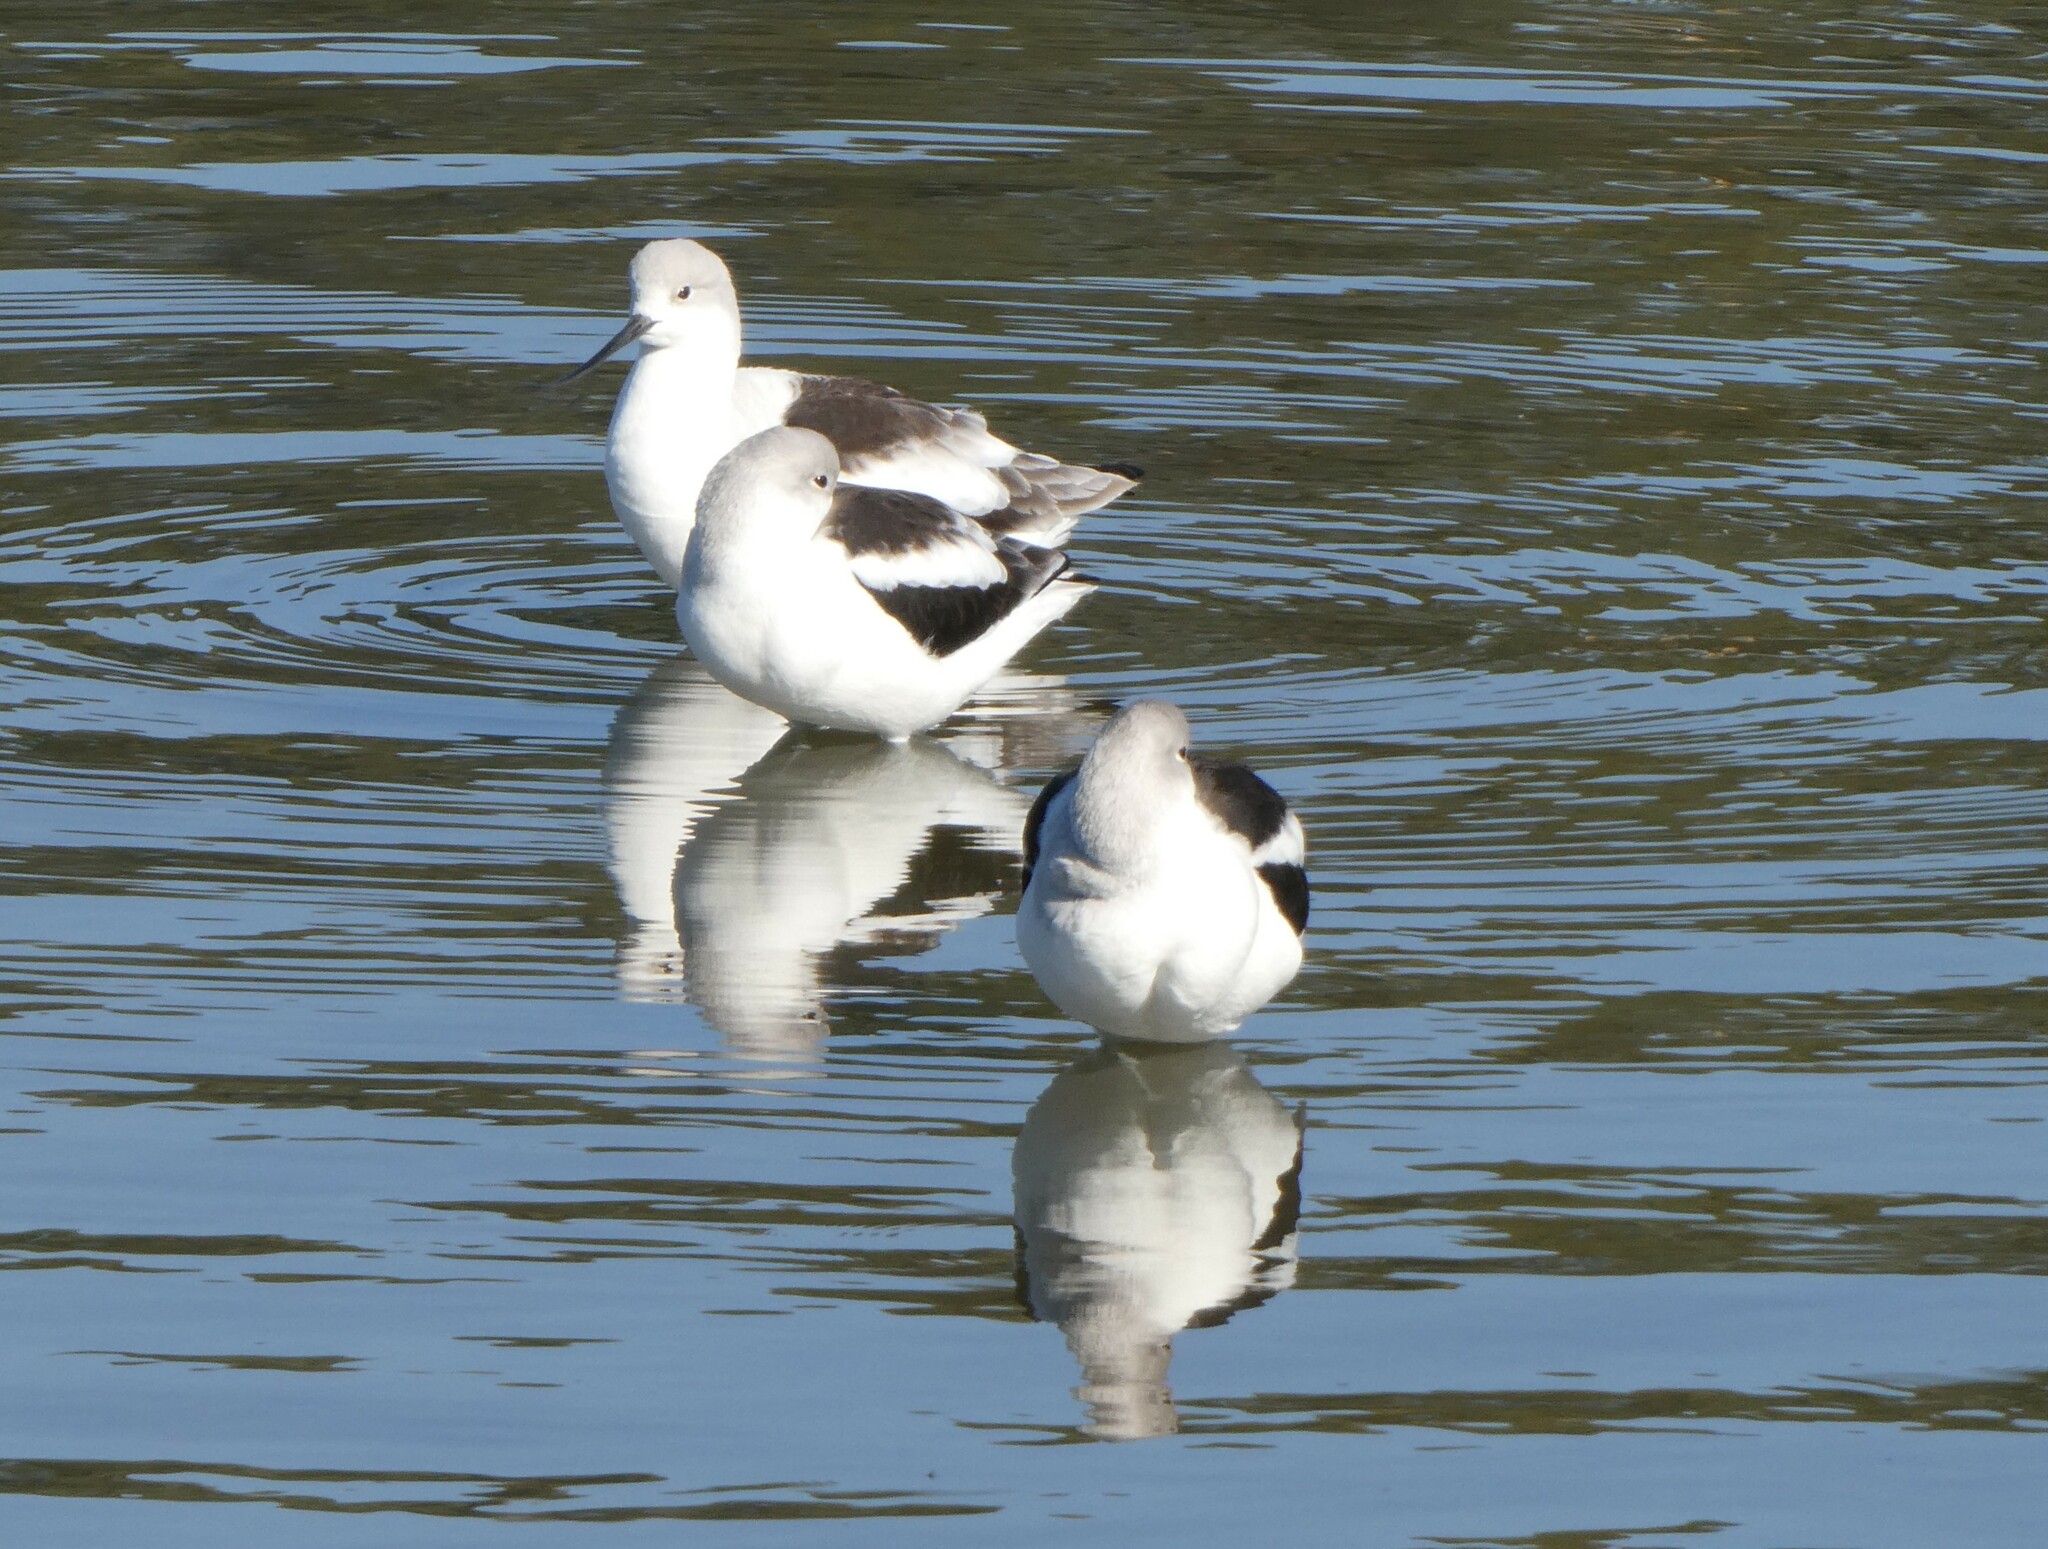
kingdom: Animalia
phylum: Chordata
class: Aves
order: Charadriiformes
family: Recurvirostridae
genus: Recurvirostra
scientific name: Recurvirostra americana
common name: American avocet
